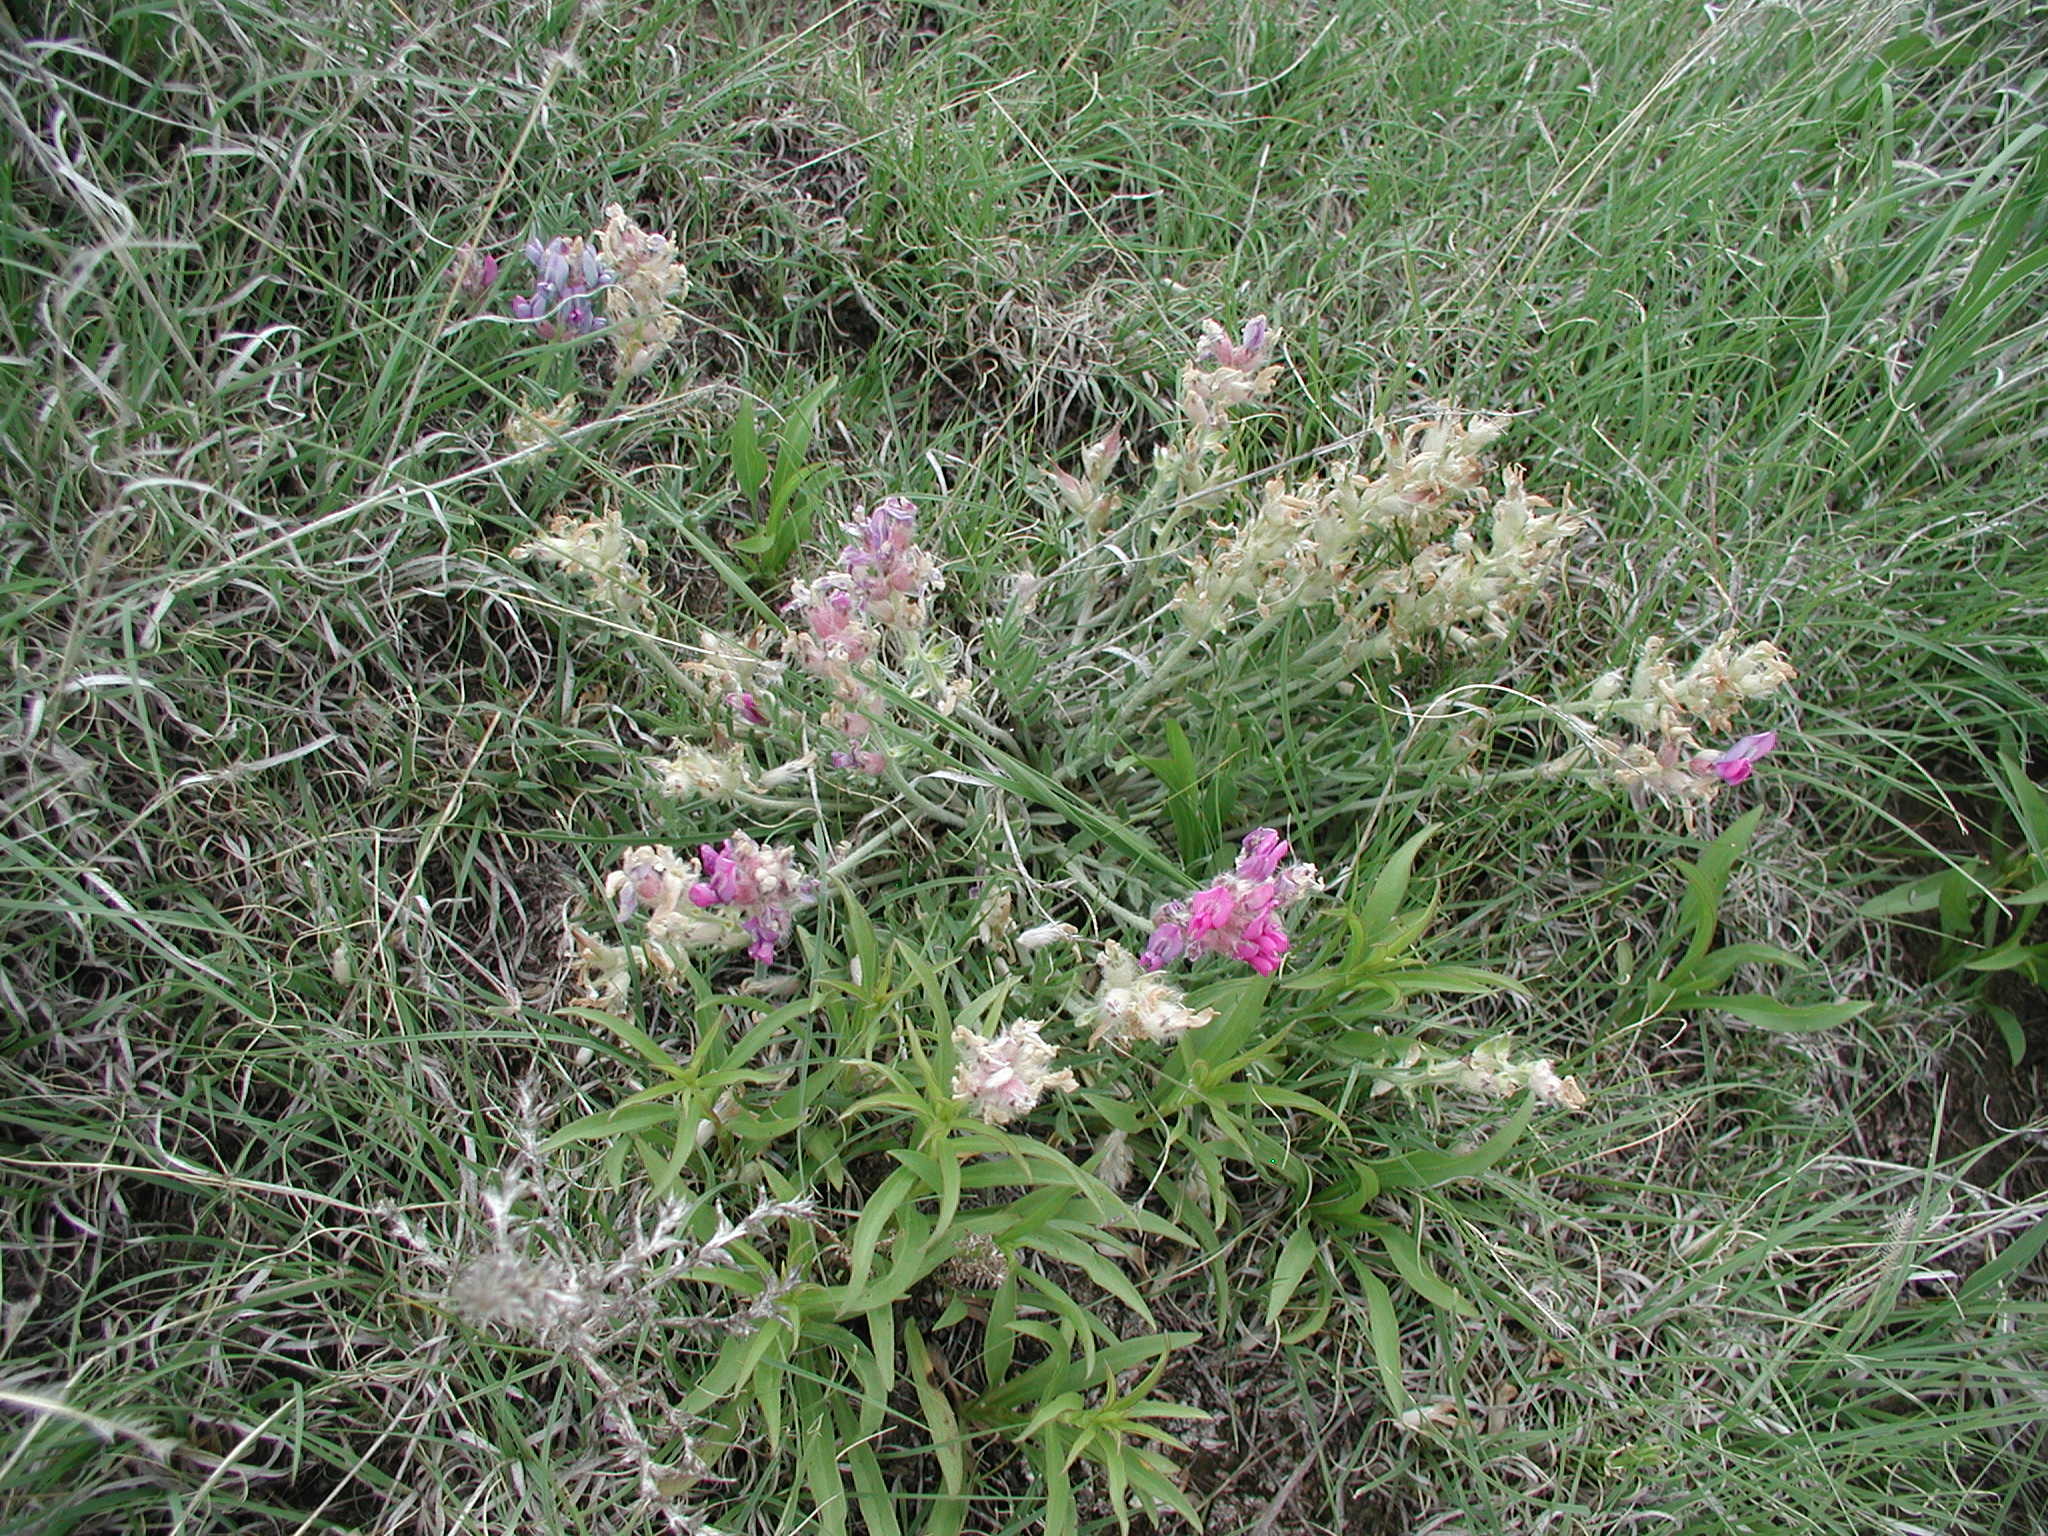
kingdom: Plantae
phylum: Tracheophyta
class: Magnoliopsida
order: Fabales
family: Fabaceae
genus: Oxytropis
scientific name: Oxytropis lambertii
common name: Purple locoweed
